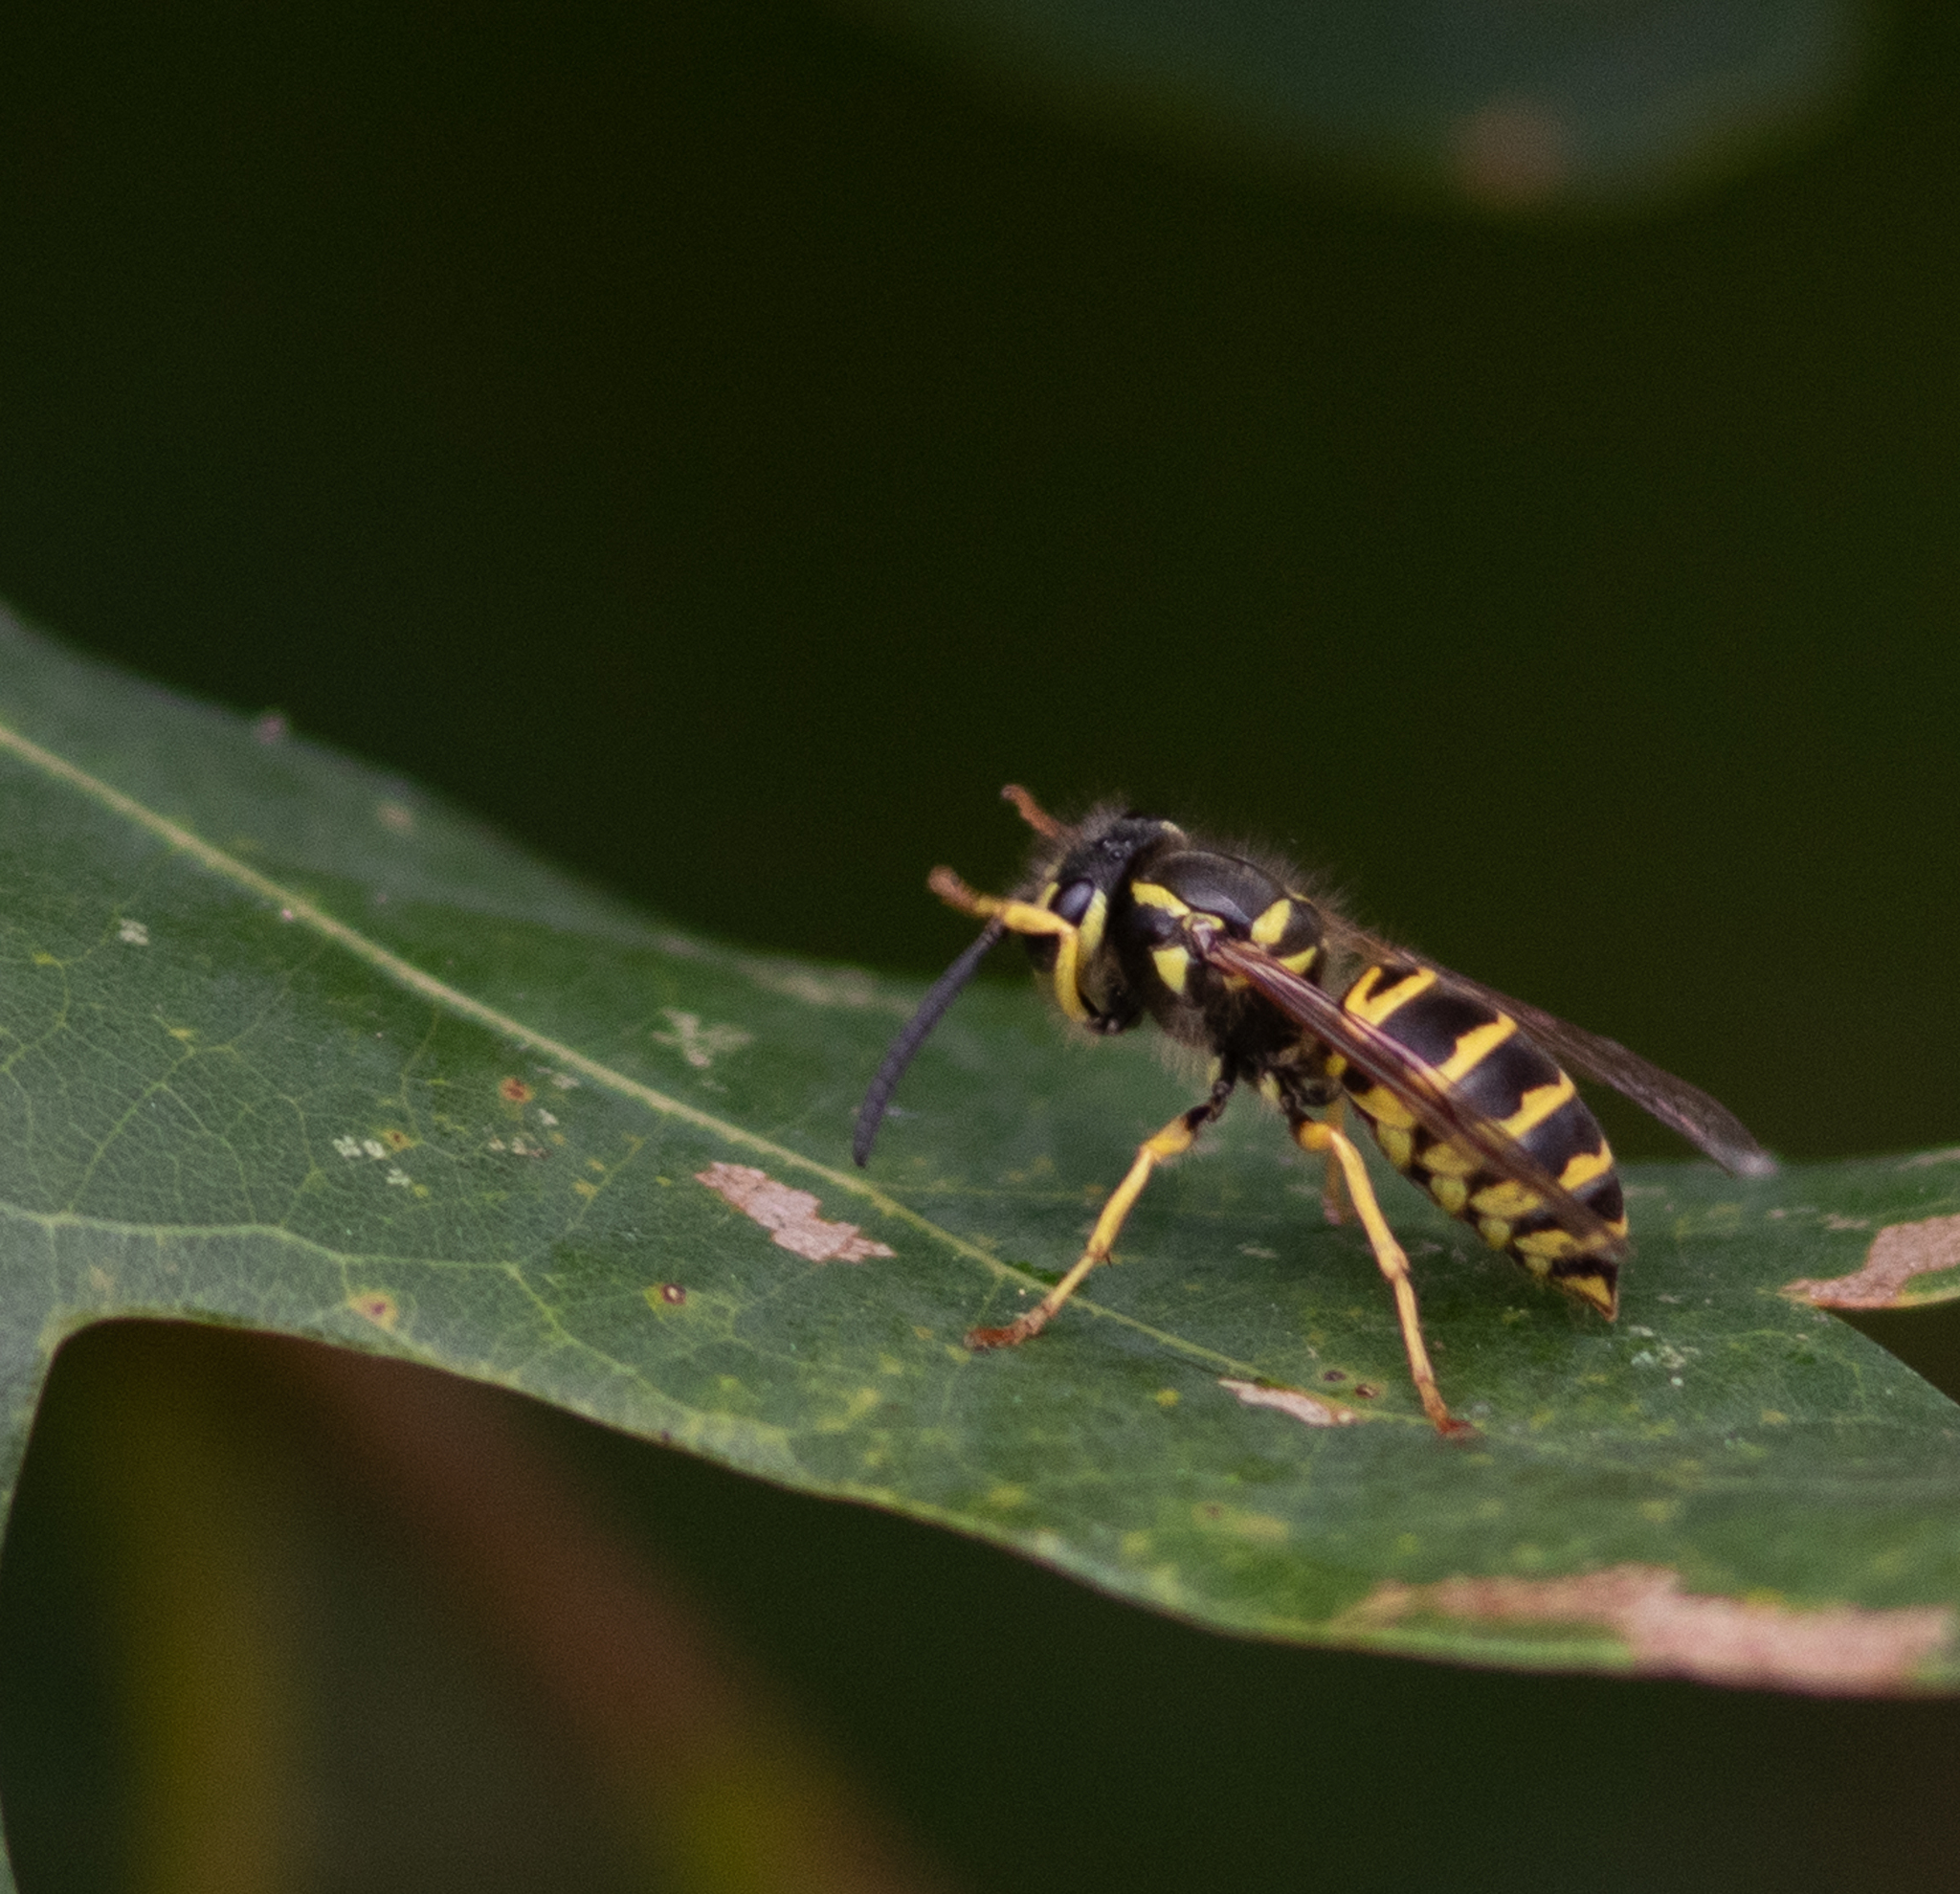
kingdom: Animalia
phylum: Arthropoda
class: Insecta
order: Hymenoptera
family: Vespidae
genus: Vespula
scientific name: Vespula maculifrons
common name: Eastern yellowjacket
